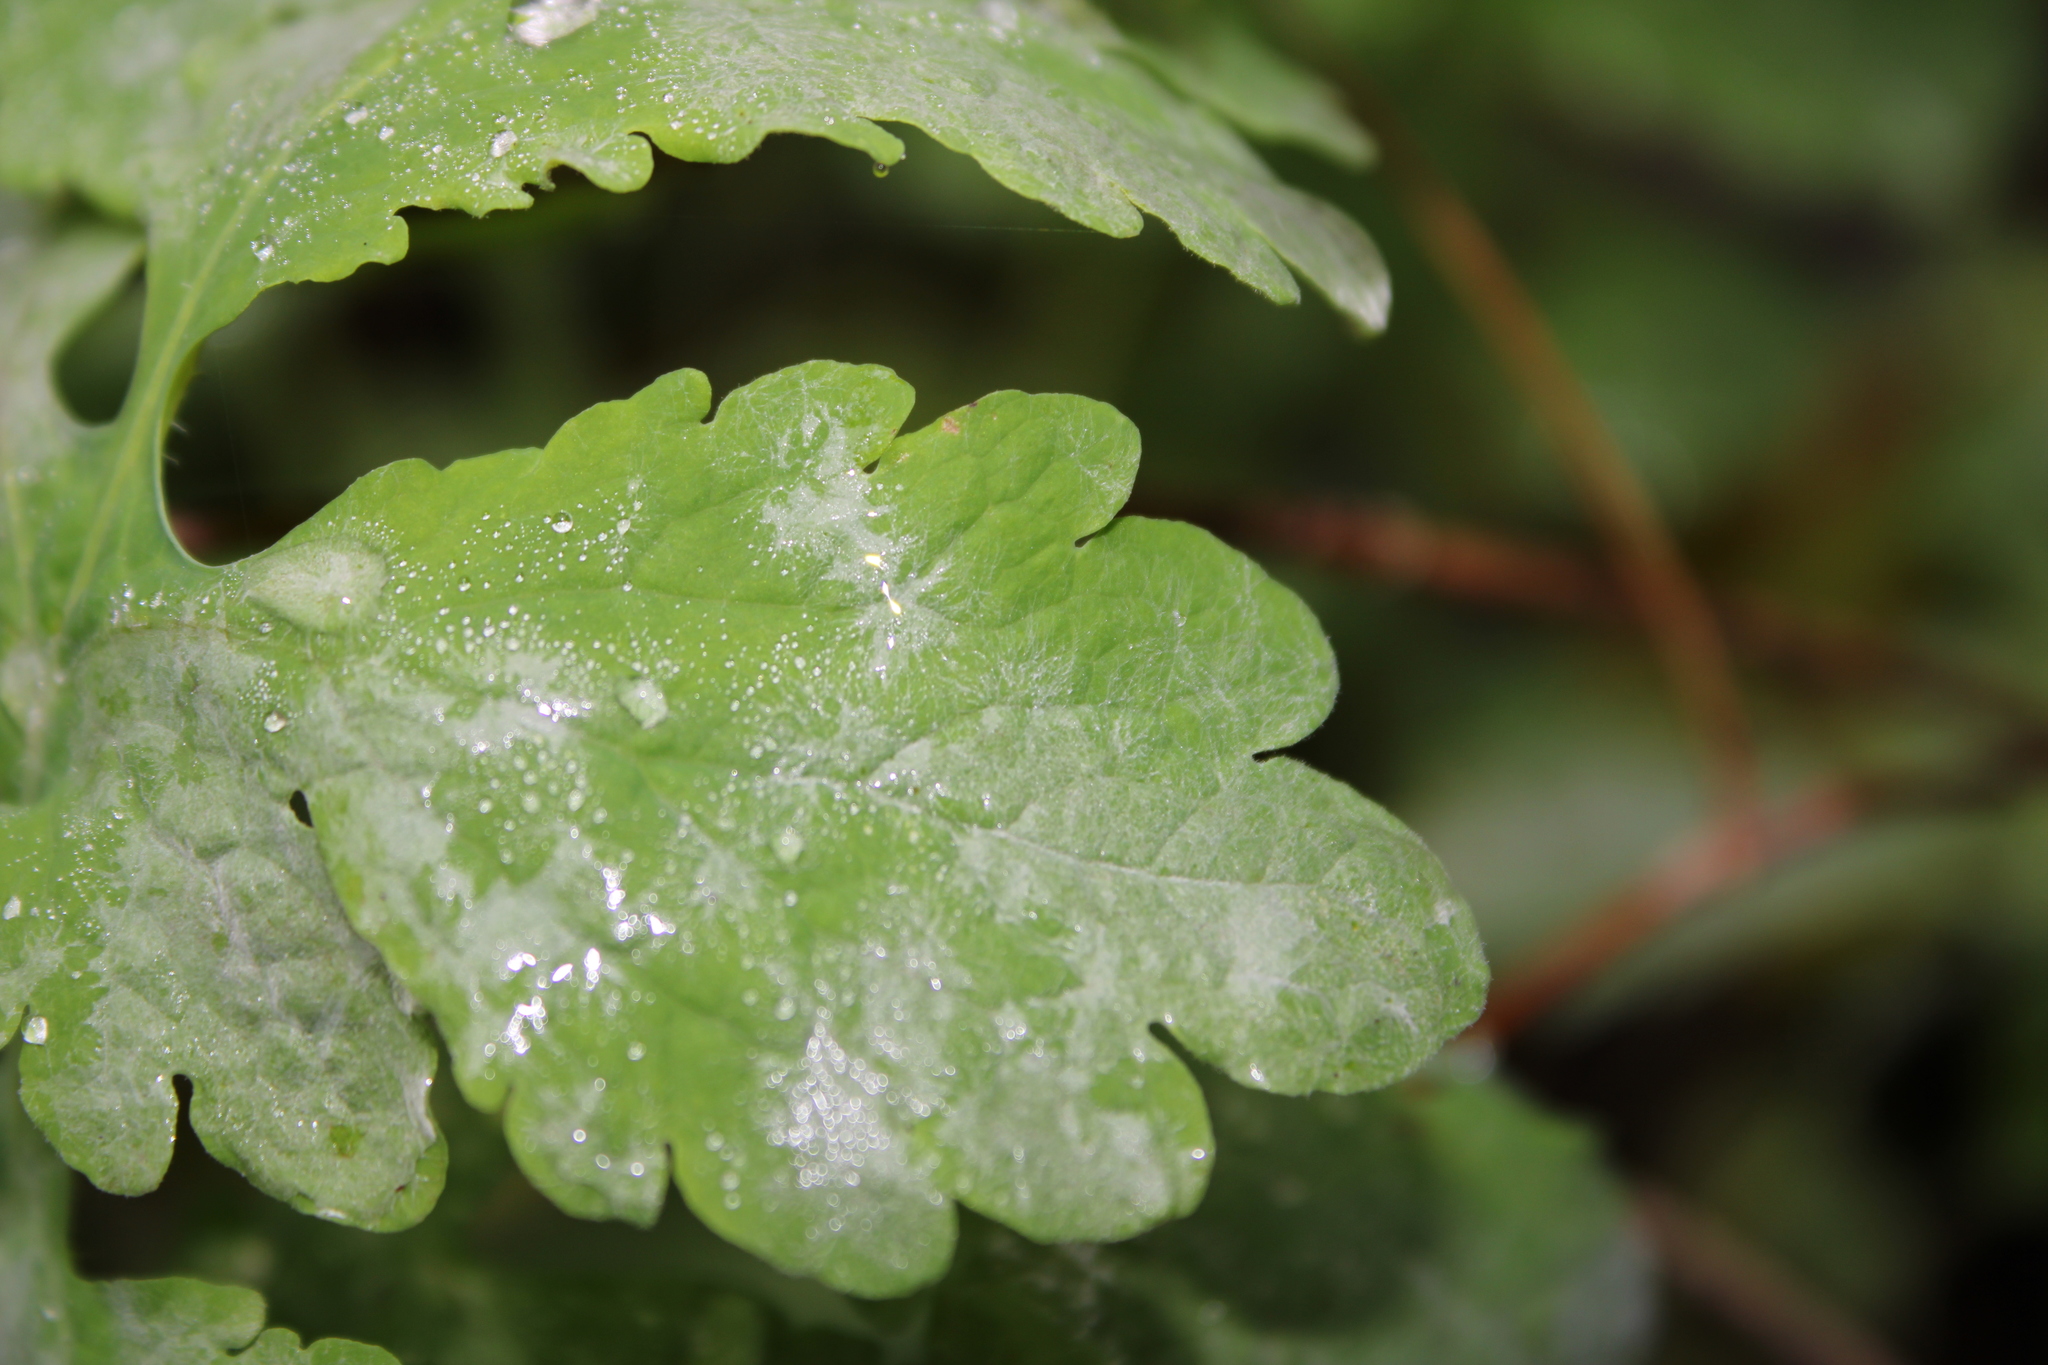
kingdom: Fungi
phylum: Ascomycota
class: Leotiomycetes
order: Helotiales
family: Erysiphaceae
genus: Erysiphe
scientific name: Erysiphe macleayae
